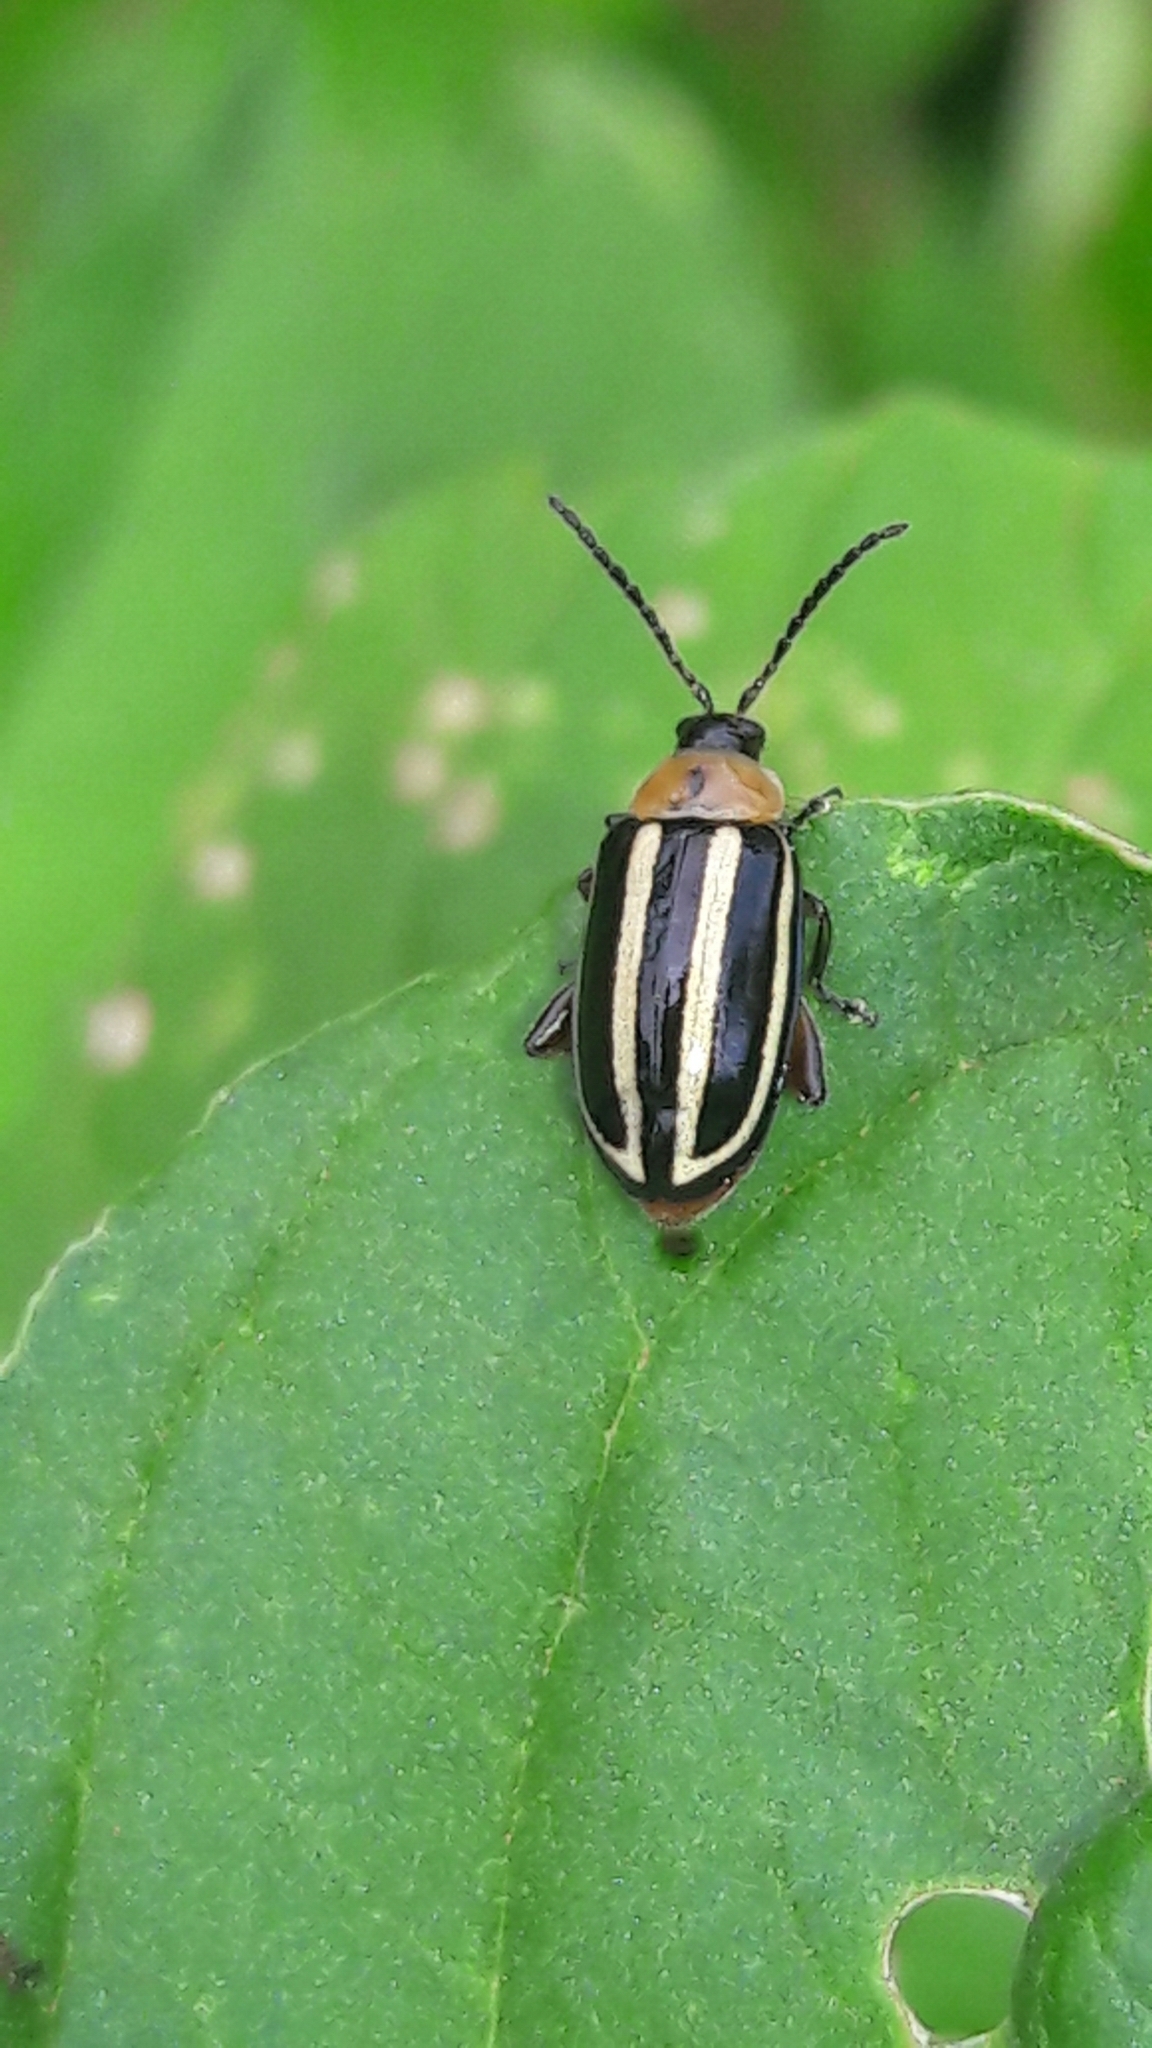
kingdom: Animalia
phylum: Arthropoda
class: Insecta
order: Coleoptera
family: Chrysomelidae
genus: Disonycha
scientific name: Disonycha glabrata
